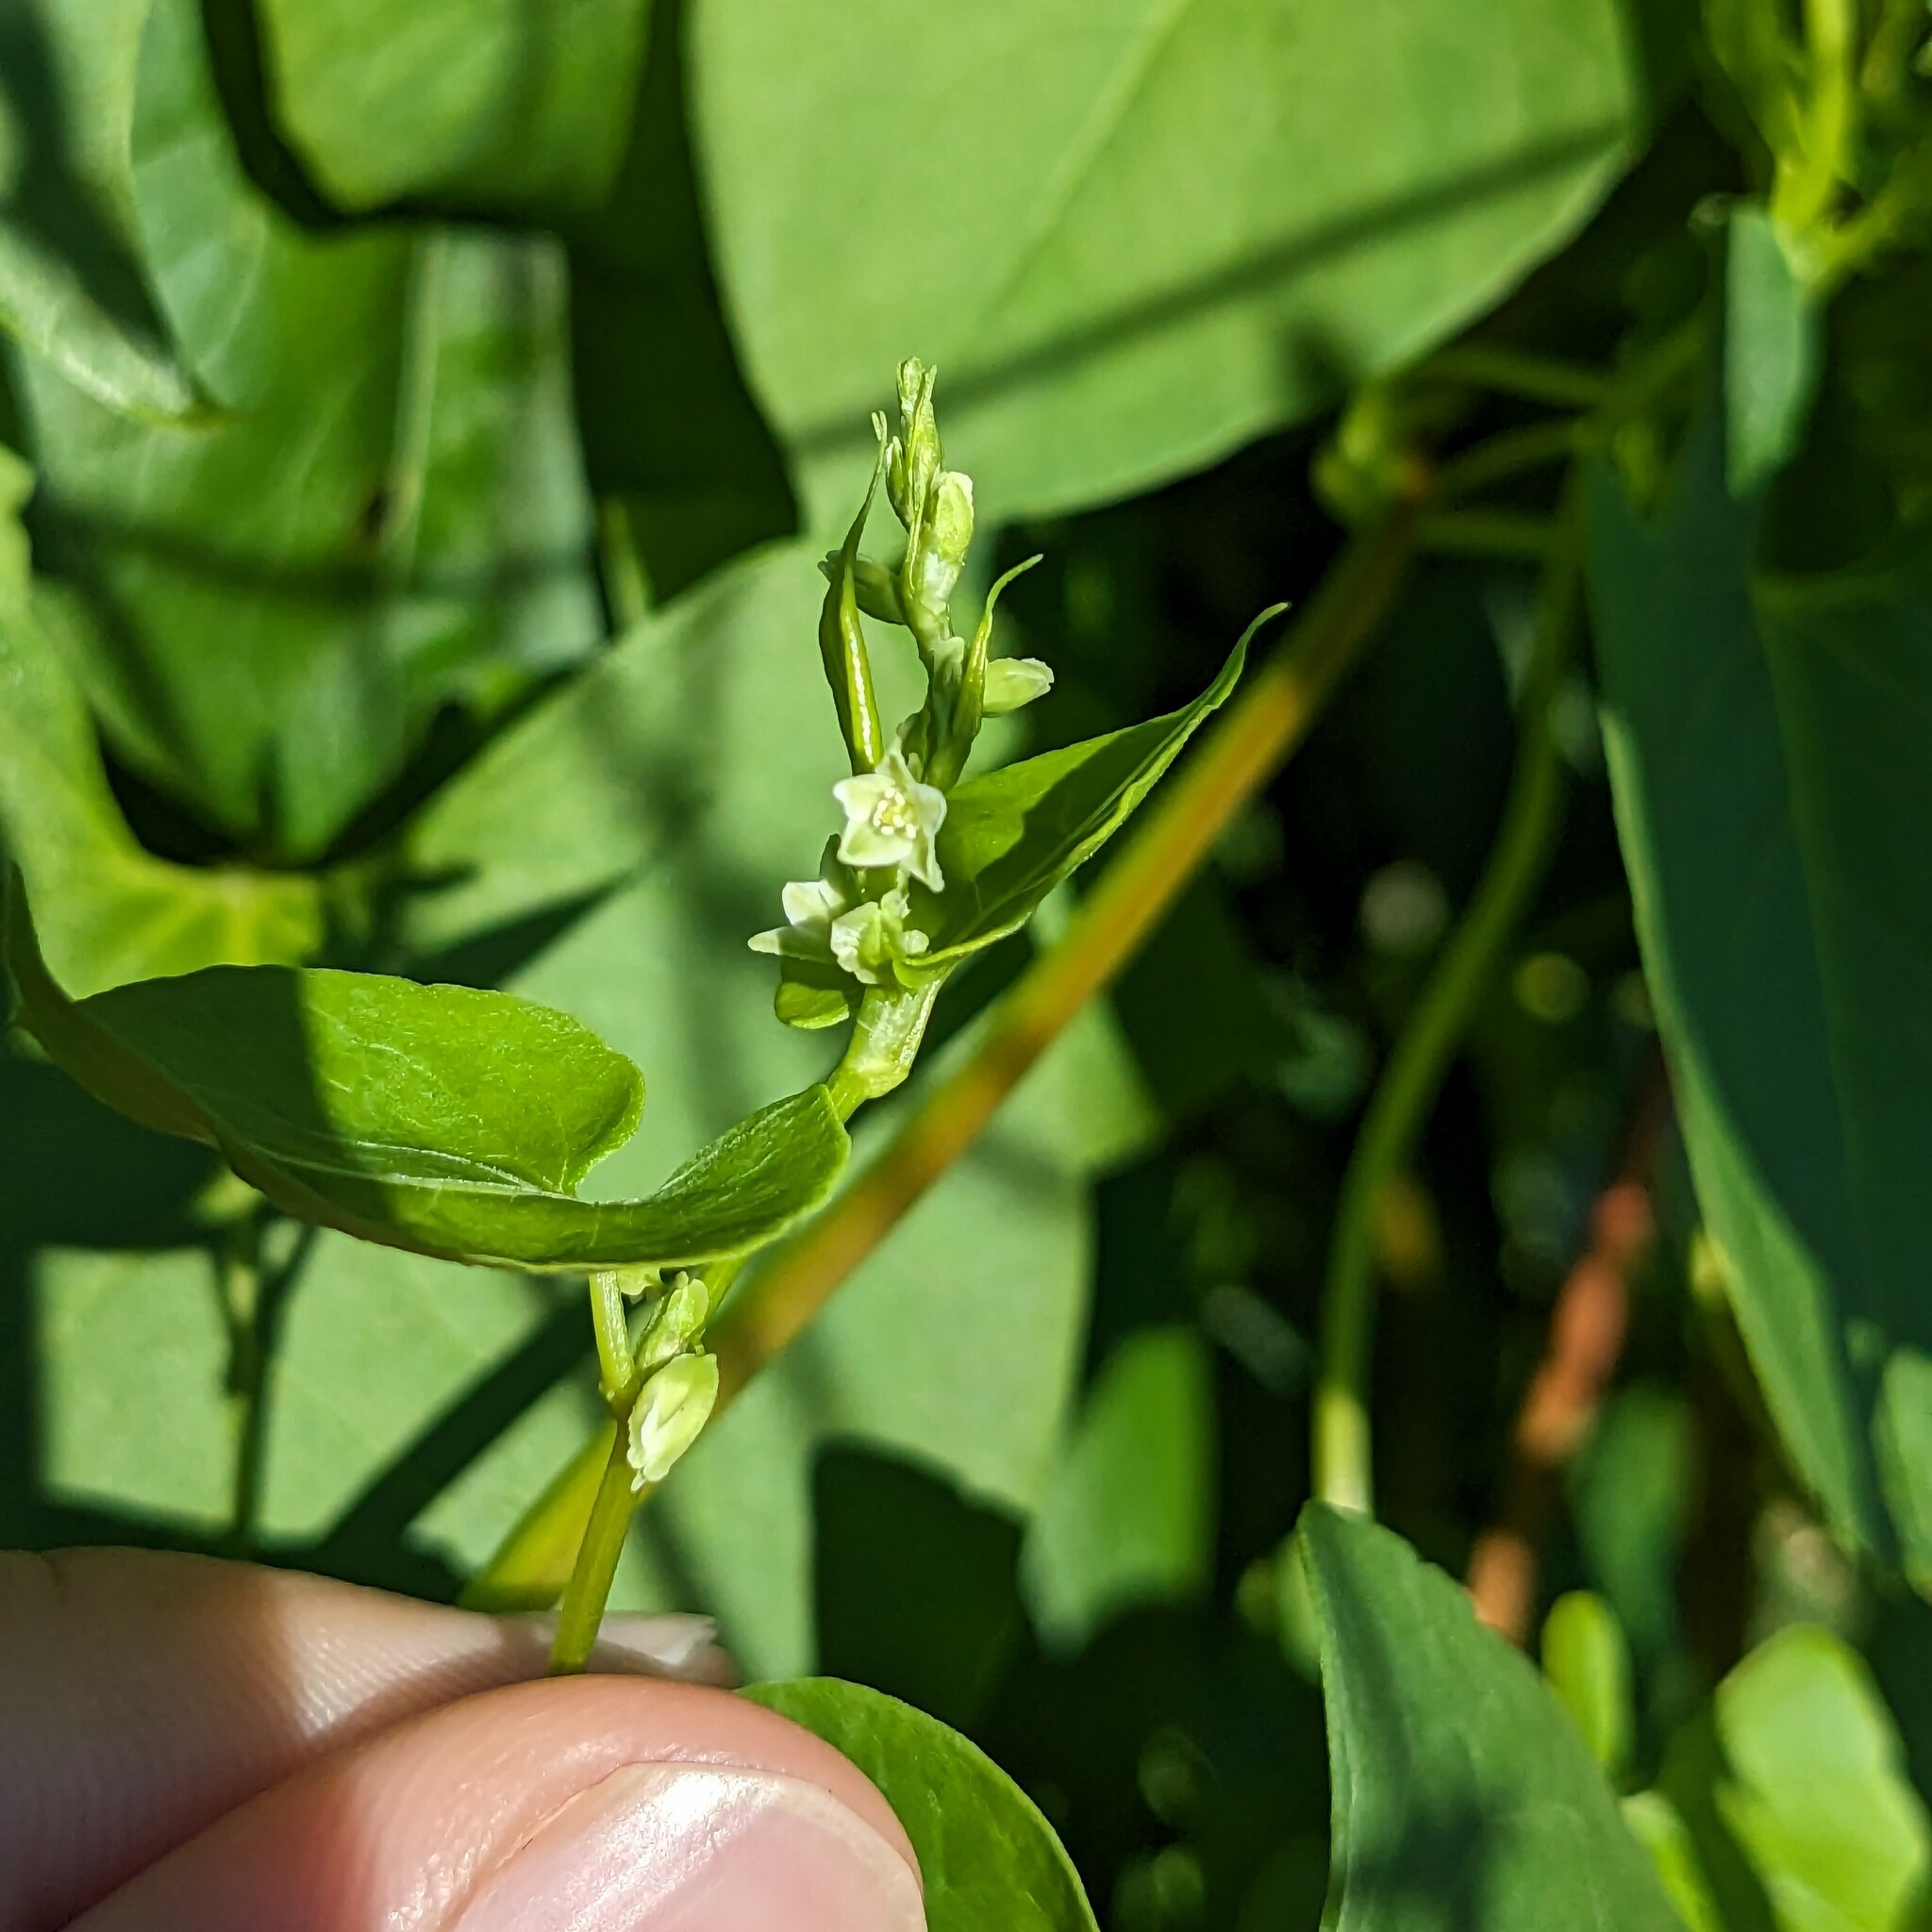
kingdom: Plantae
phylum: Tracheophyta
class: Magnoliopsida
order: Caryophyllales
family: Polygonaceae
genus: Fallopia
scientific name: Fallopia scandens
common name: Climbing false buckwheat
